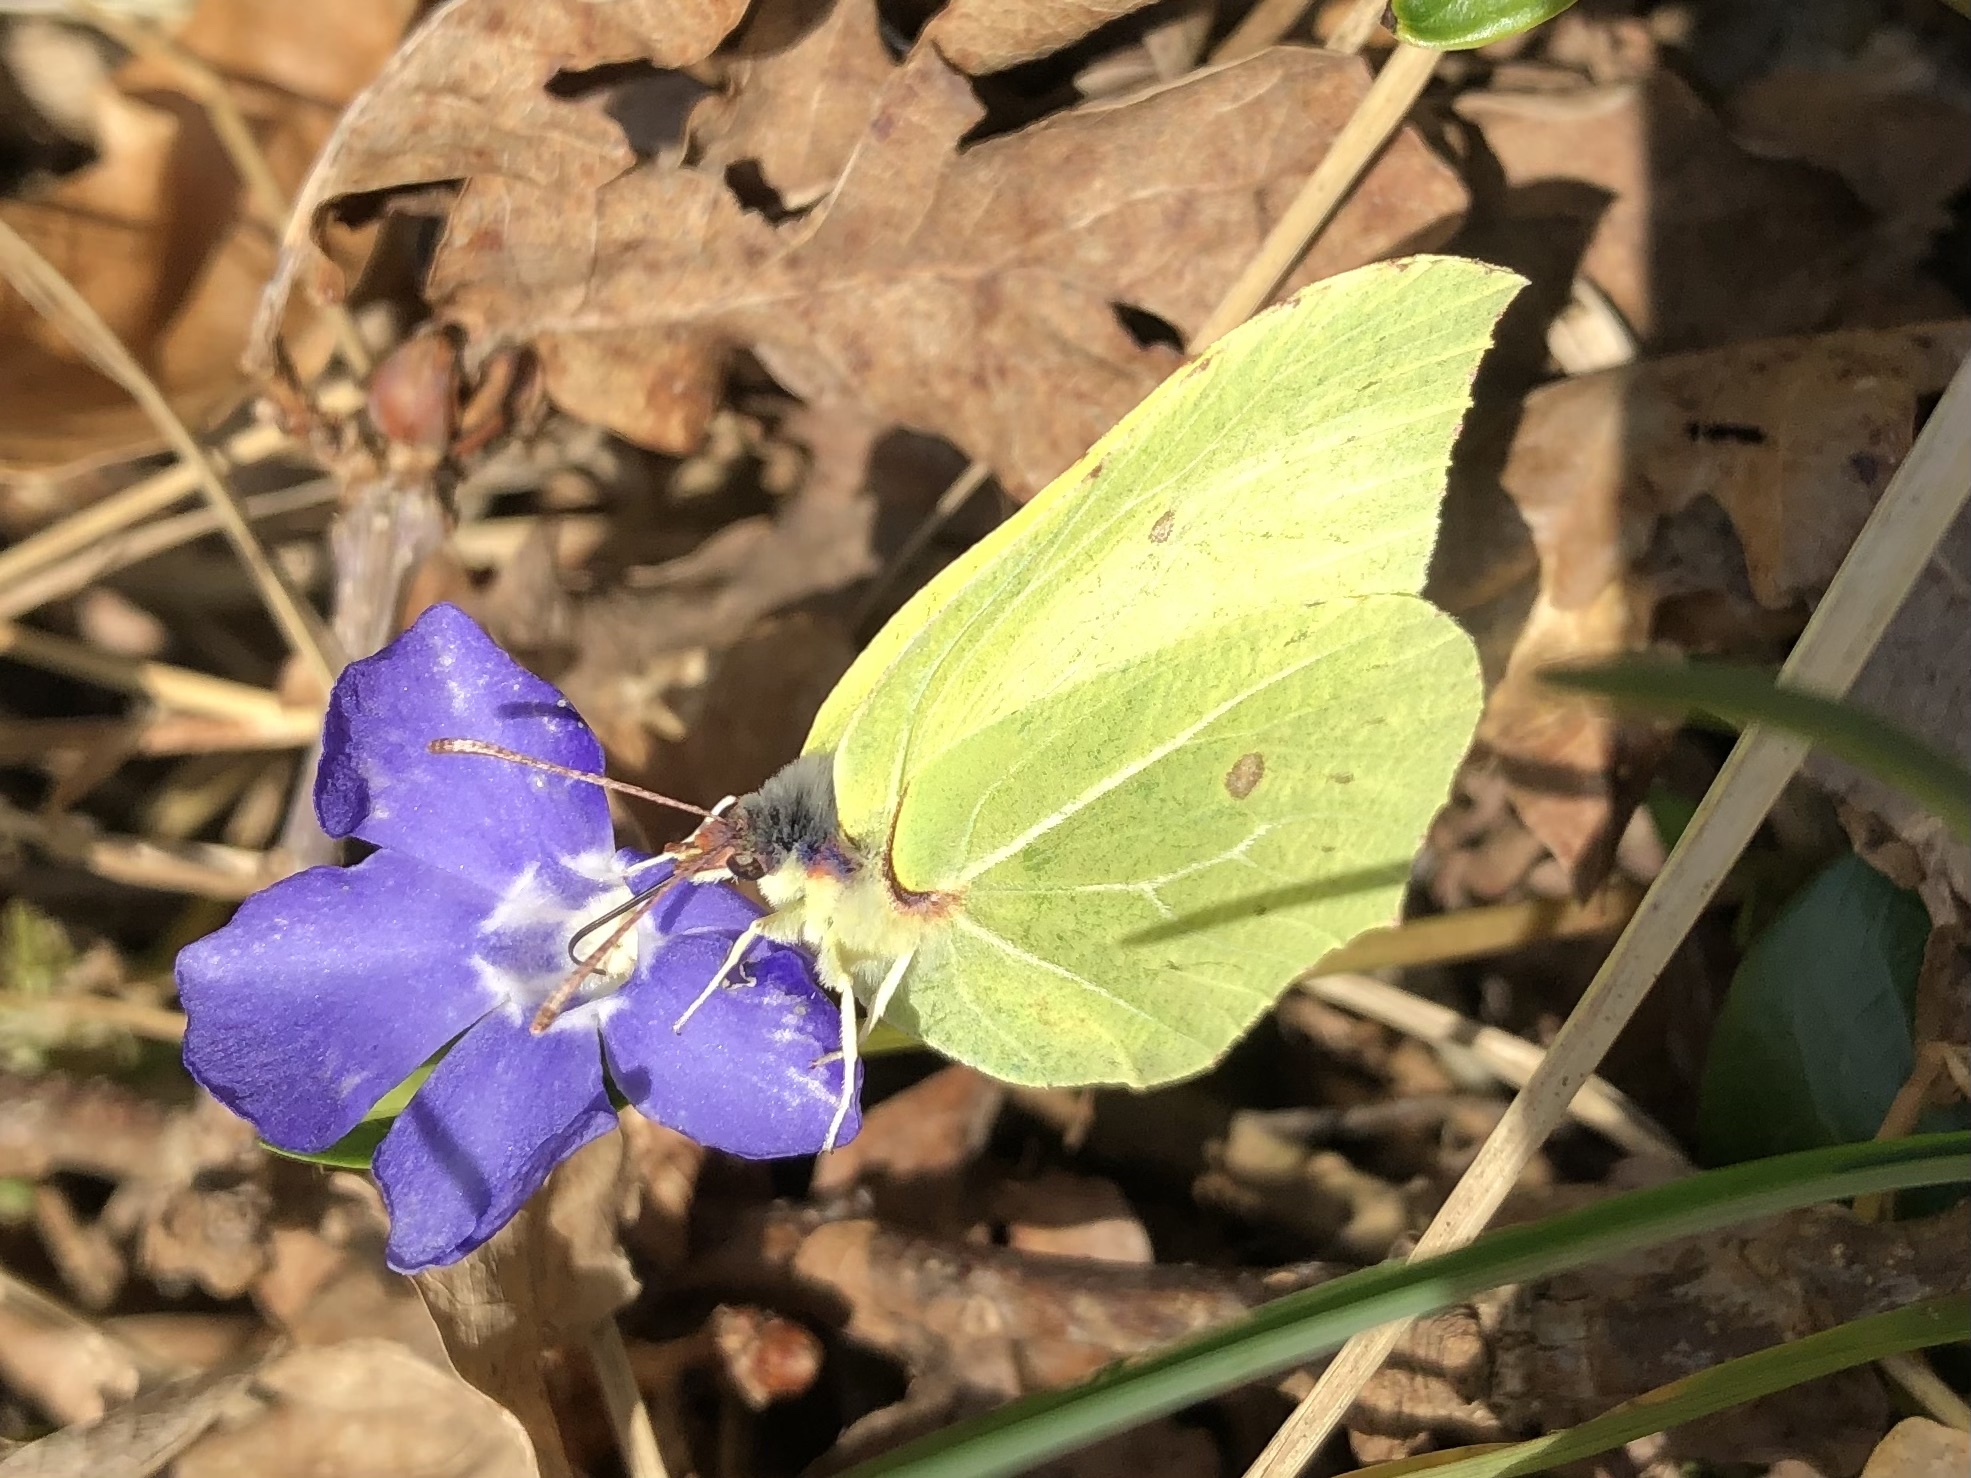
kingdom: Animalia
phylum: Arthropoda
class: Insecta
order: Lepidoptera
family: Pieridae
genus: Gonepteryx
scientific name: Gonepteryx rhamni
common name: Brimstone
